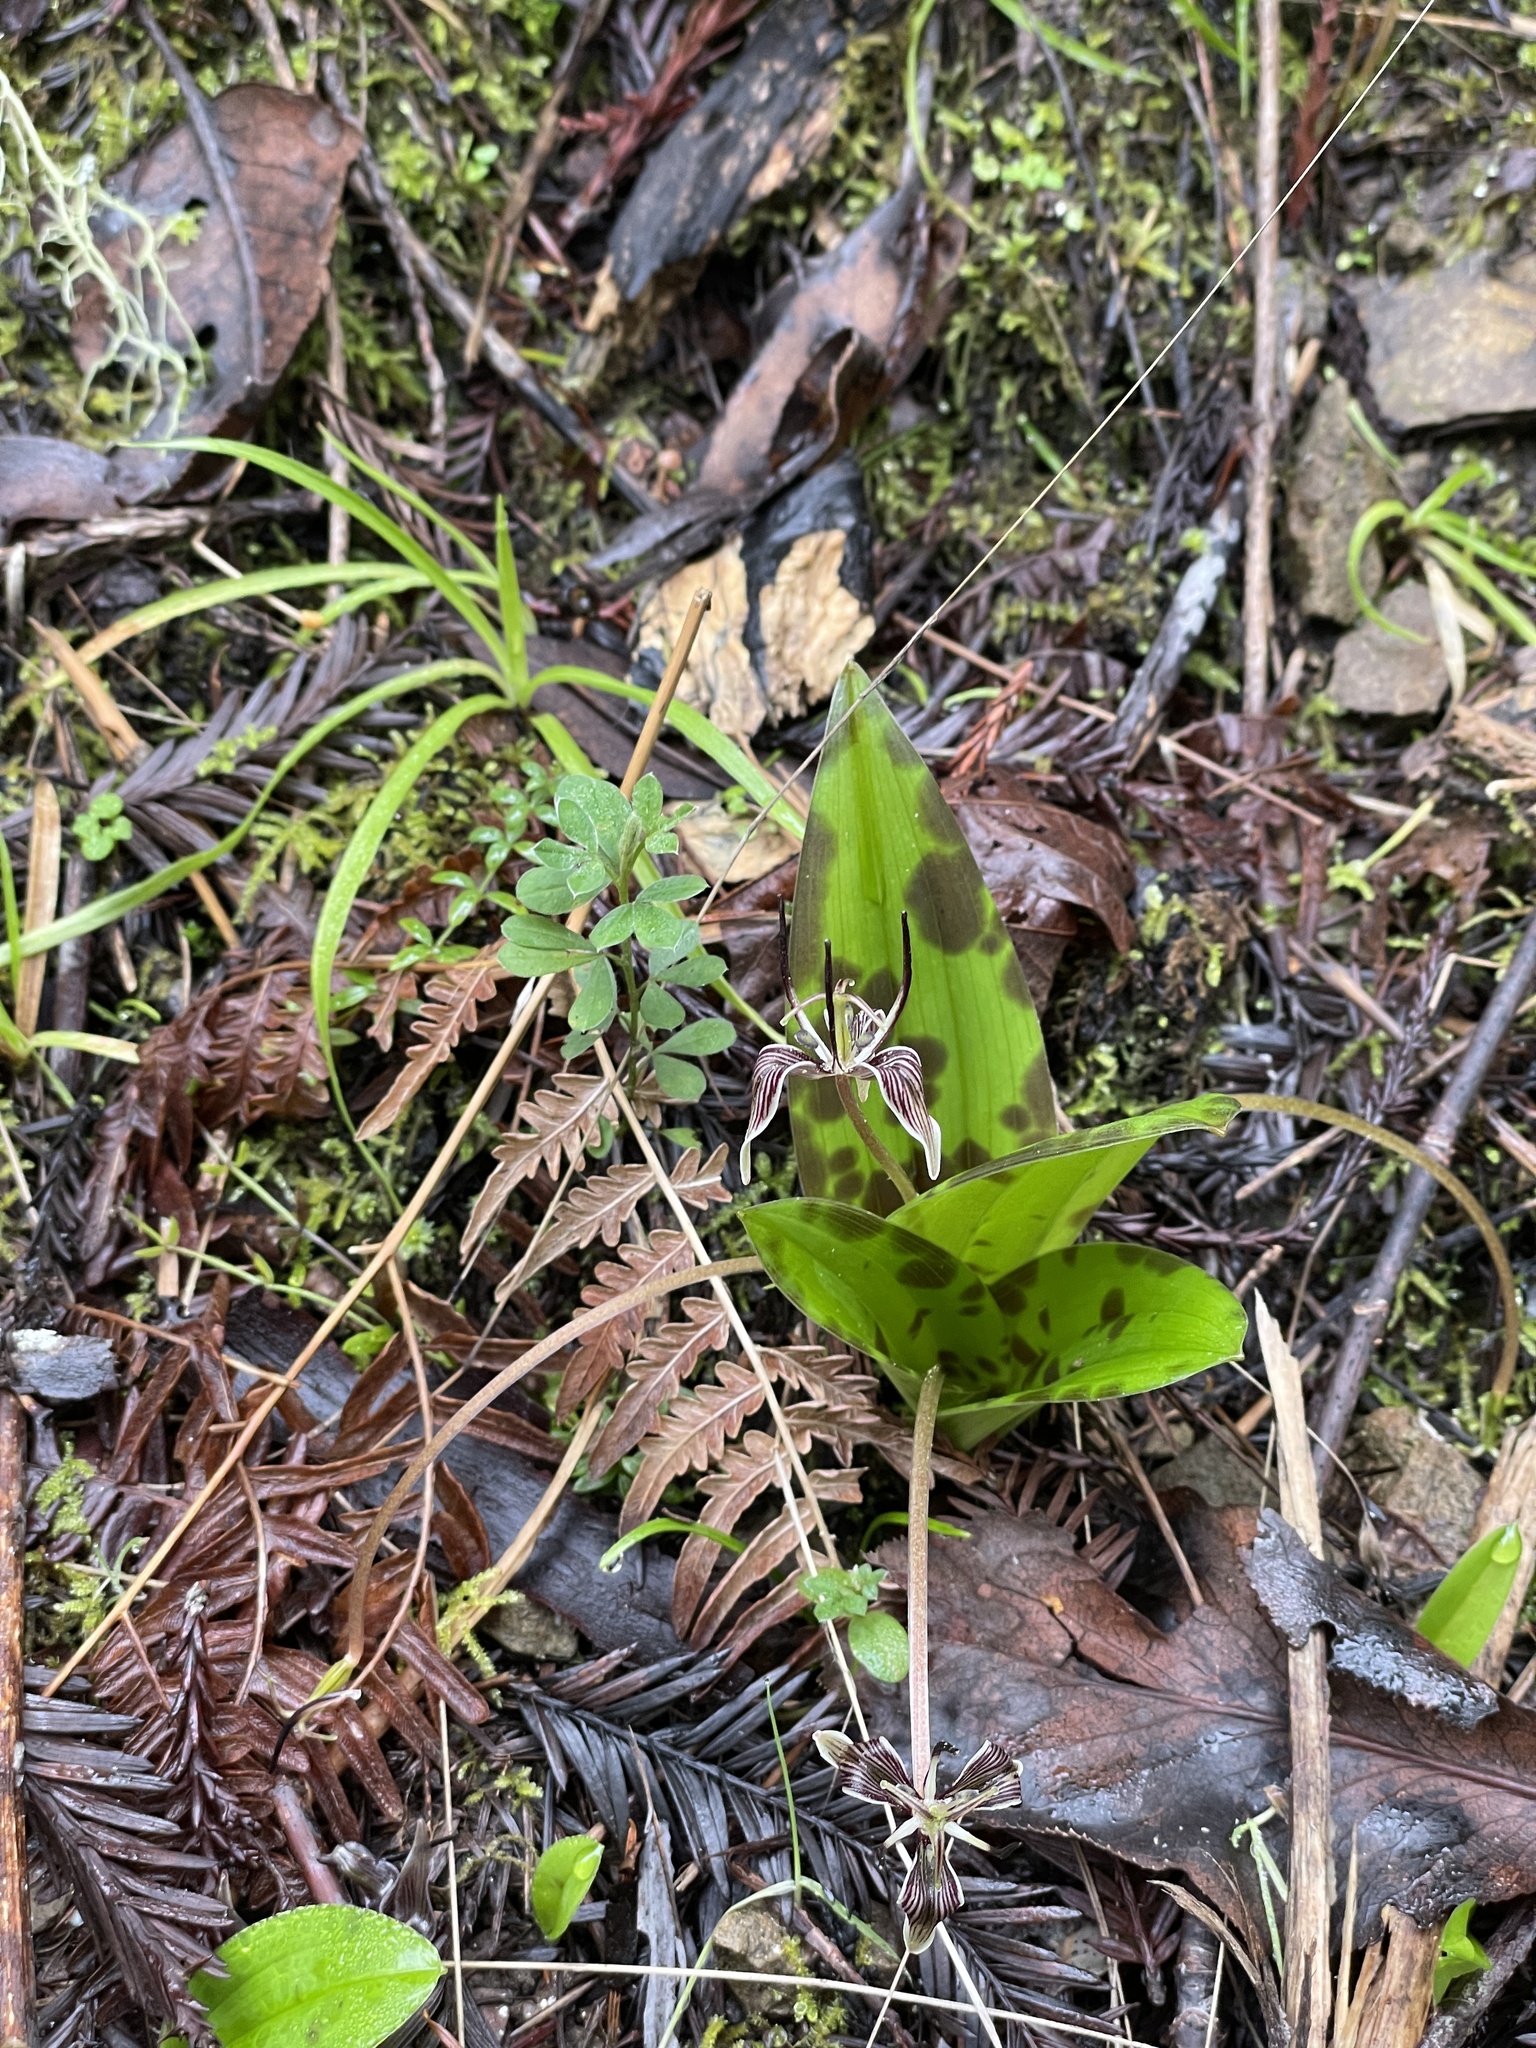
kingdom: Plantae
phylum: Tracheophyta
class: Liliopsida
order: Liliales
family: Liliaceae
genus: Scoliopus
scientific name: Scoliopus bigelovii
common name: Foetid adder's-tongue
